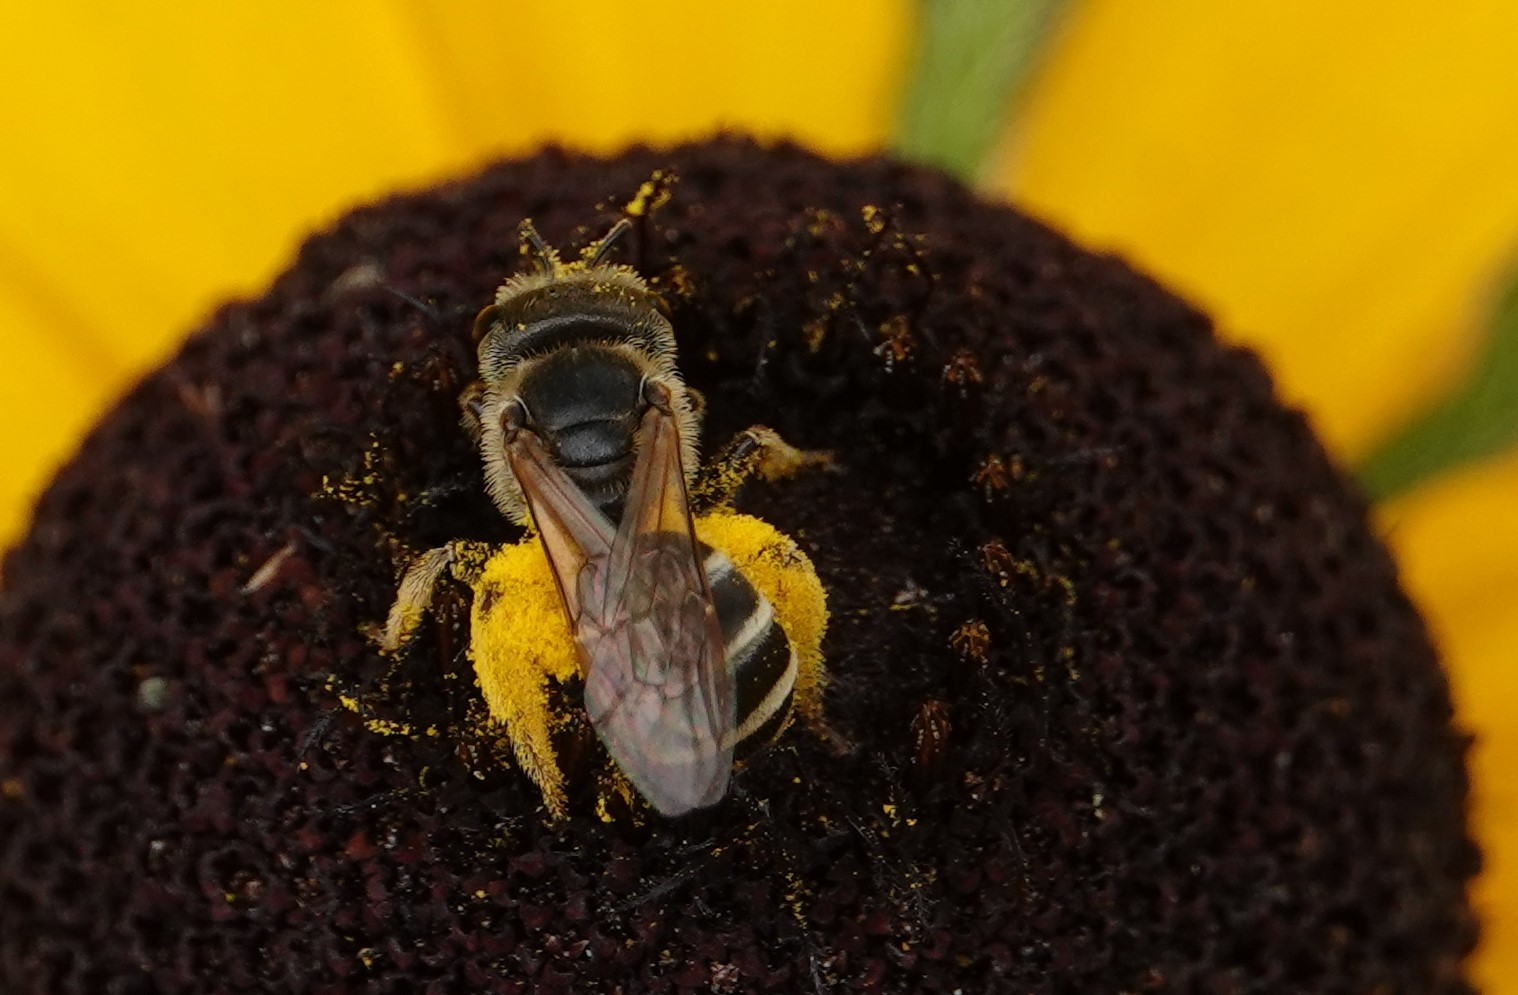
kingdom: Animalia
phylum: Arthropoda
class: Insecta
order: Hymenoptera
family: Halictidae
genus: Halictus
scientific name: Halictus ligatus
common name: Ligated furrow bee
